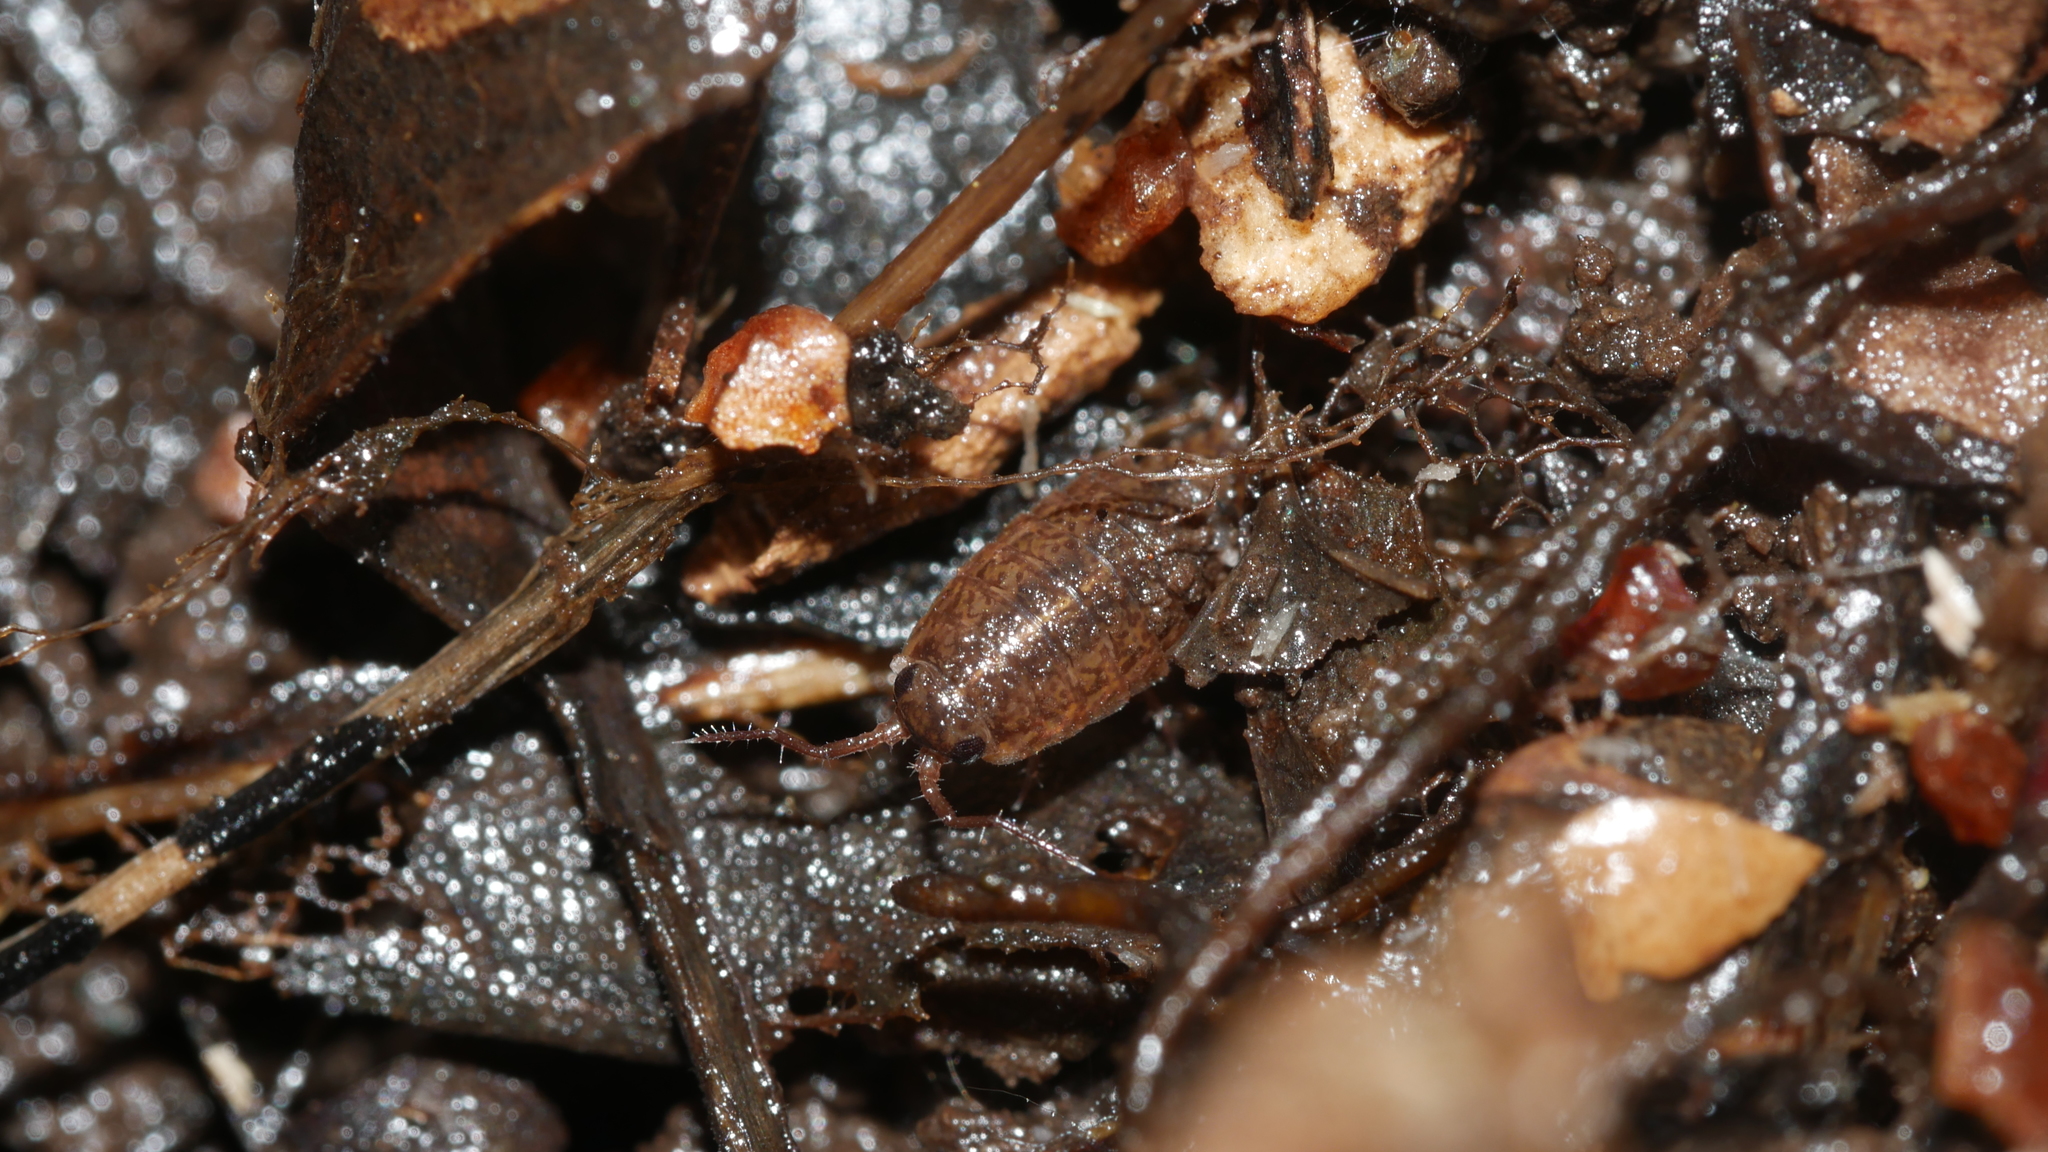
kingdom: Animalia
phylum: Arthropoda
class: Malacostraca
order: Isopoda
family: Ligiidae
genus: Ligidium
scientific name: Ligidium elrodii
